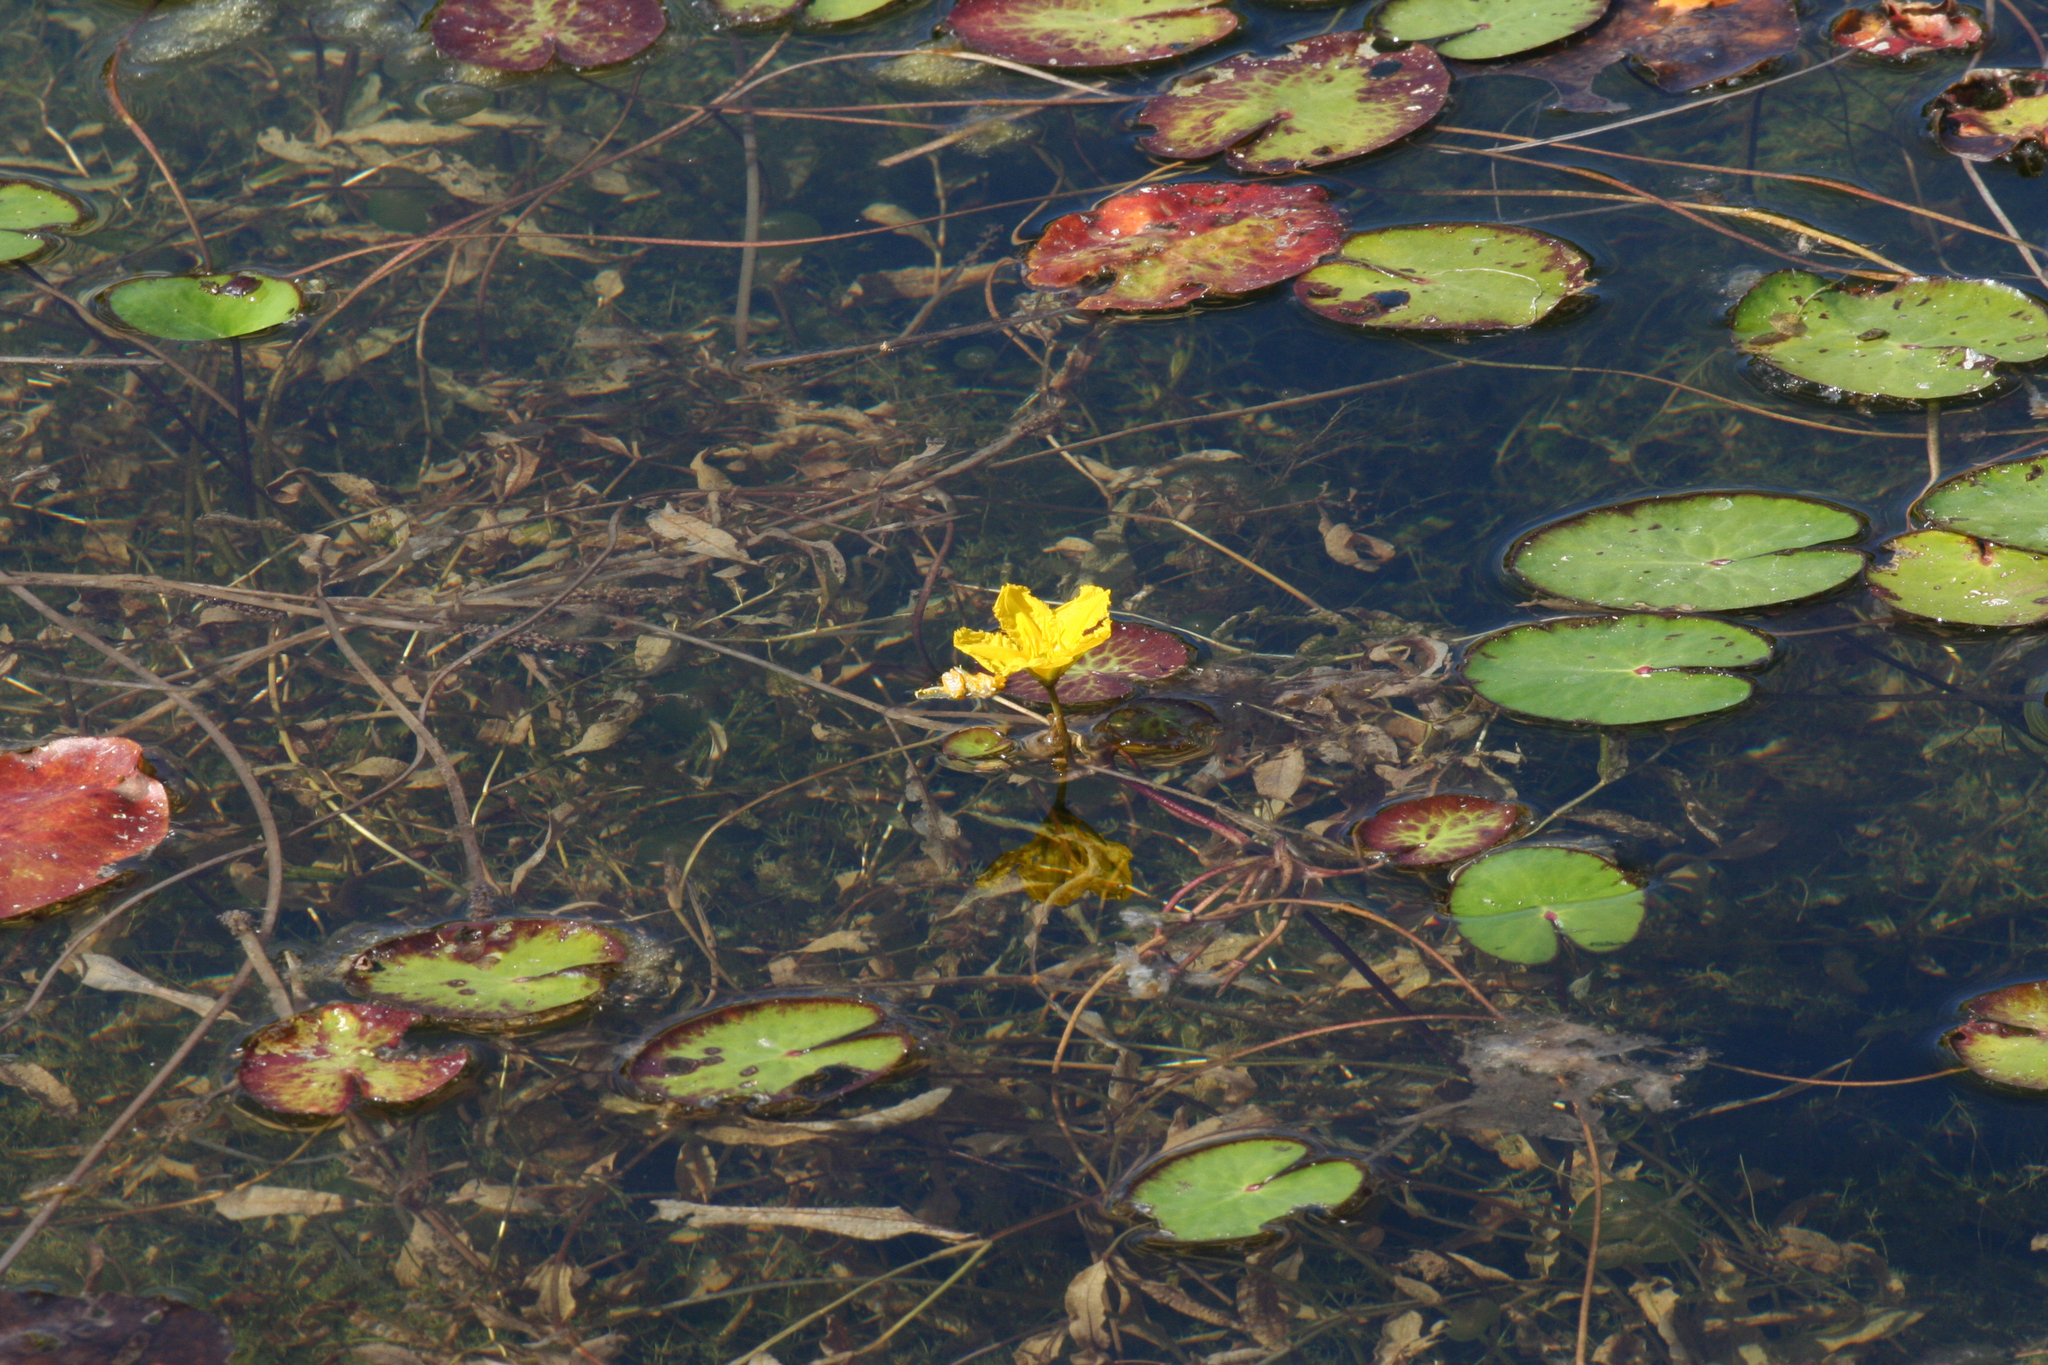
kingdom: Plantae
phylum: Tracheophyta
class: Magnoliopsida
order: Asterales
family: Menyanthaceae
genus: Nymphoides
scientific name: Nymphoides peltata
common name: Fringed water-lily
